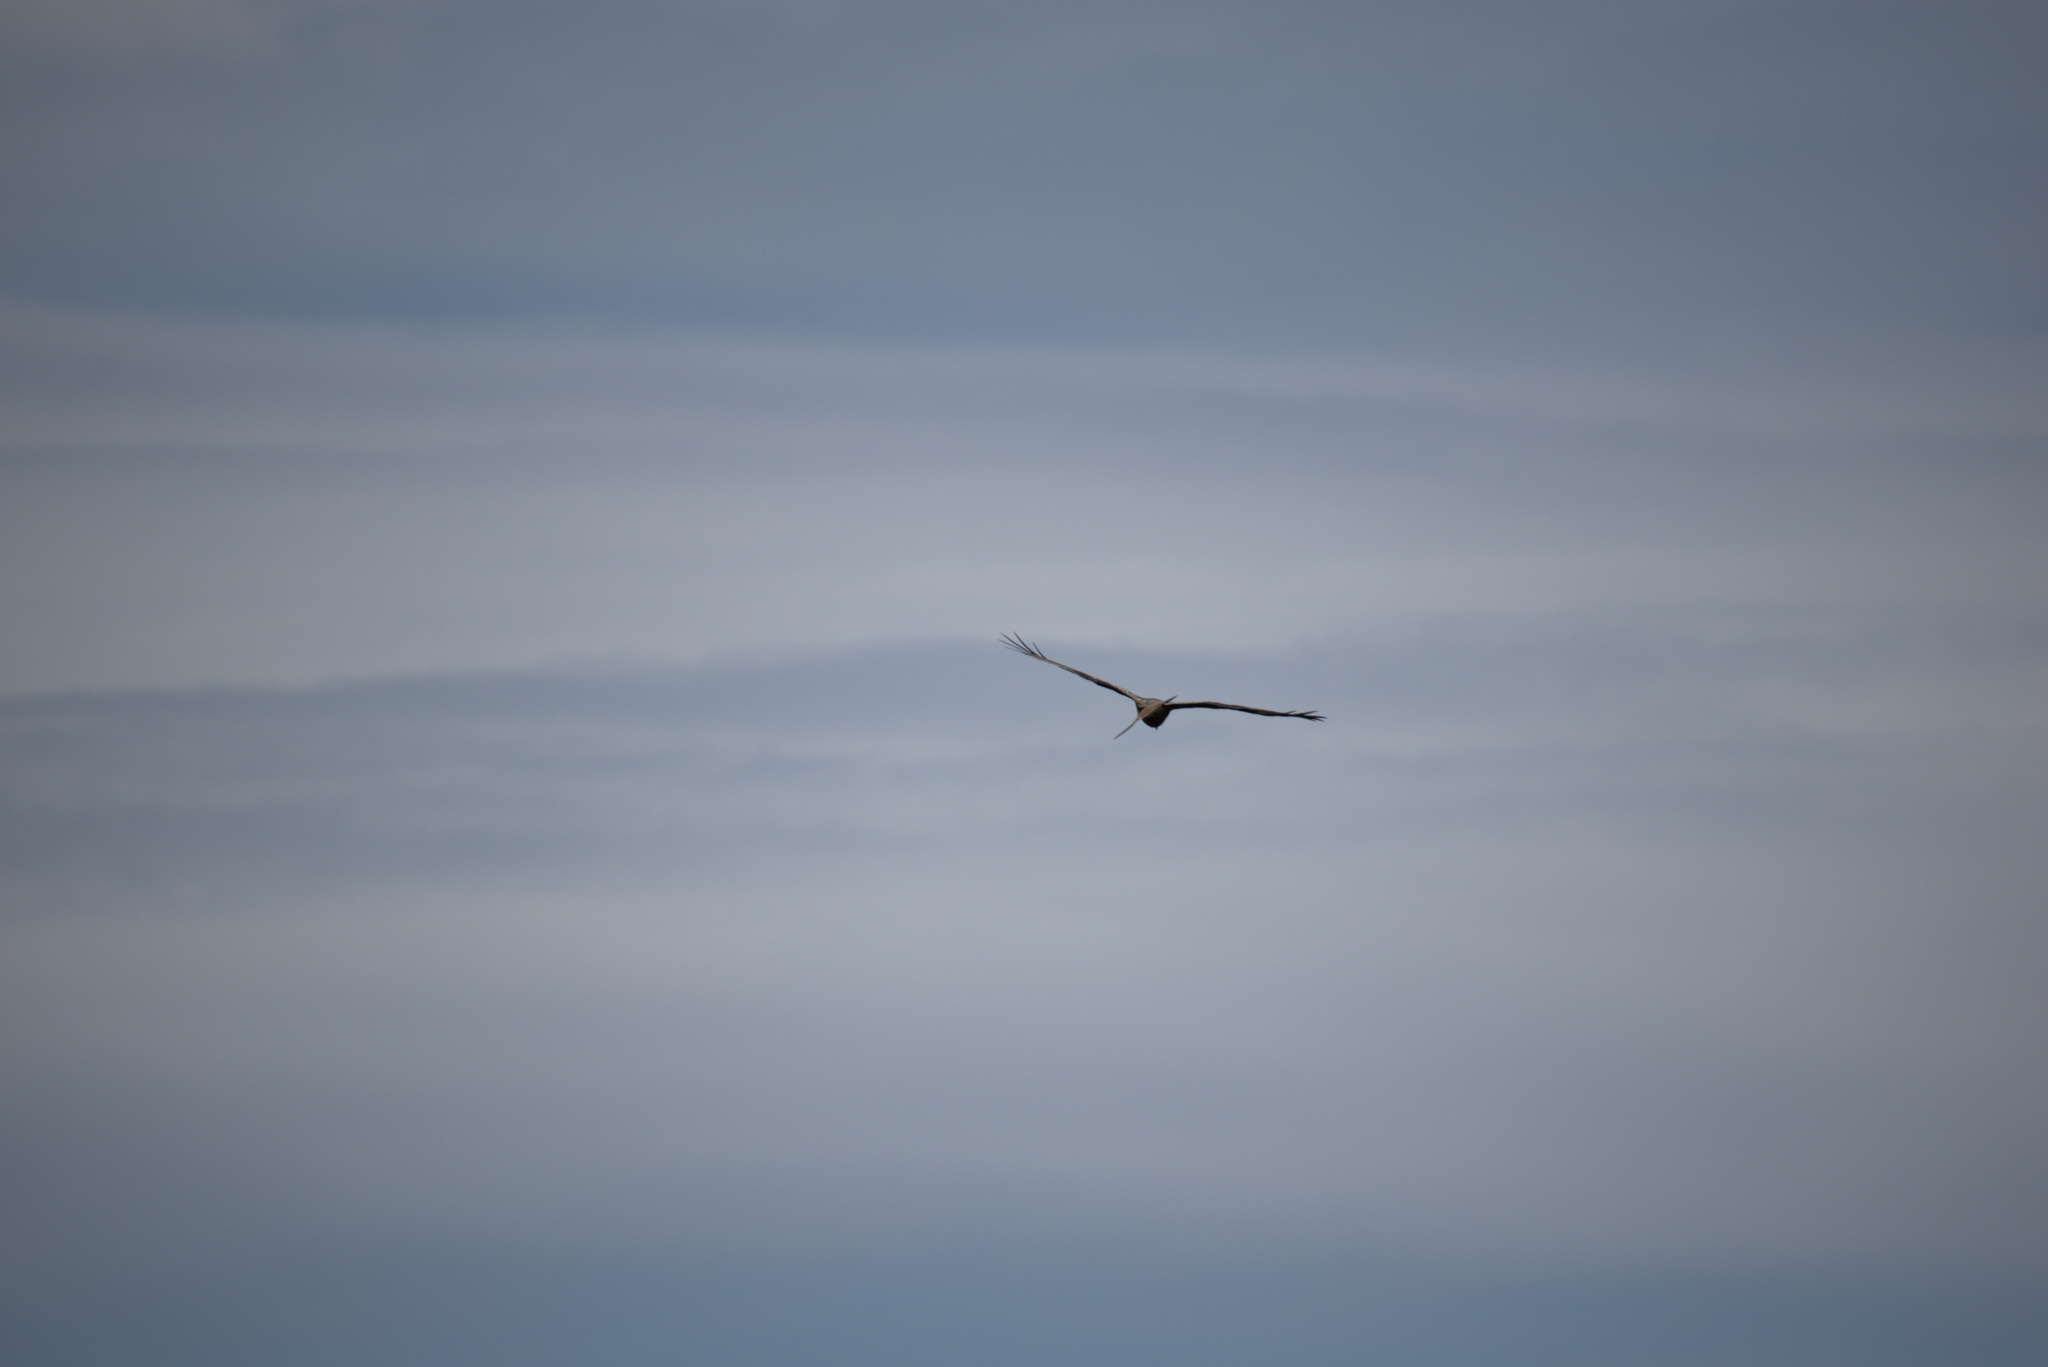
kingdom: Animalia
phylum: Chordata
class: Aves
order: Accipitriformes
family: Accipitridae
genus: Milvus
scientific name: Milvus milvus
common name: Red kite
